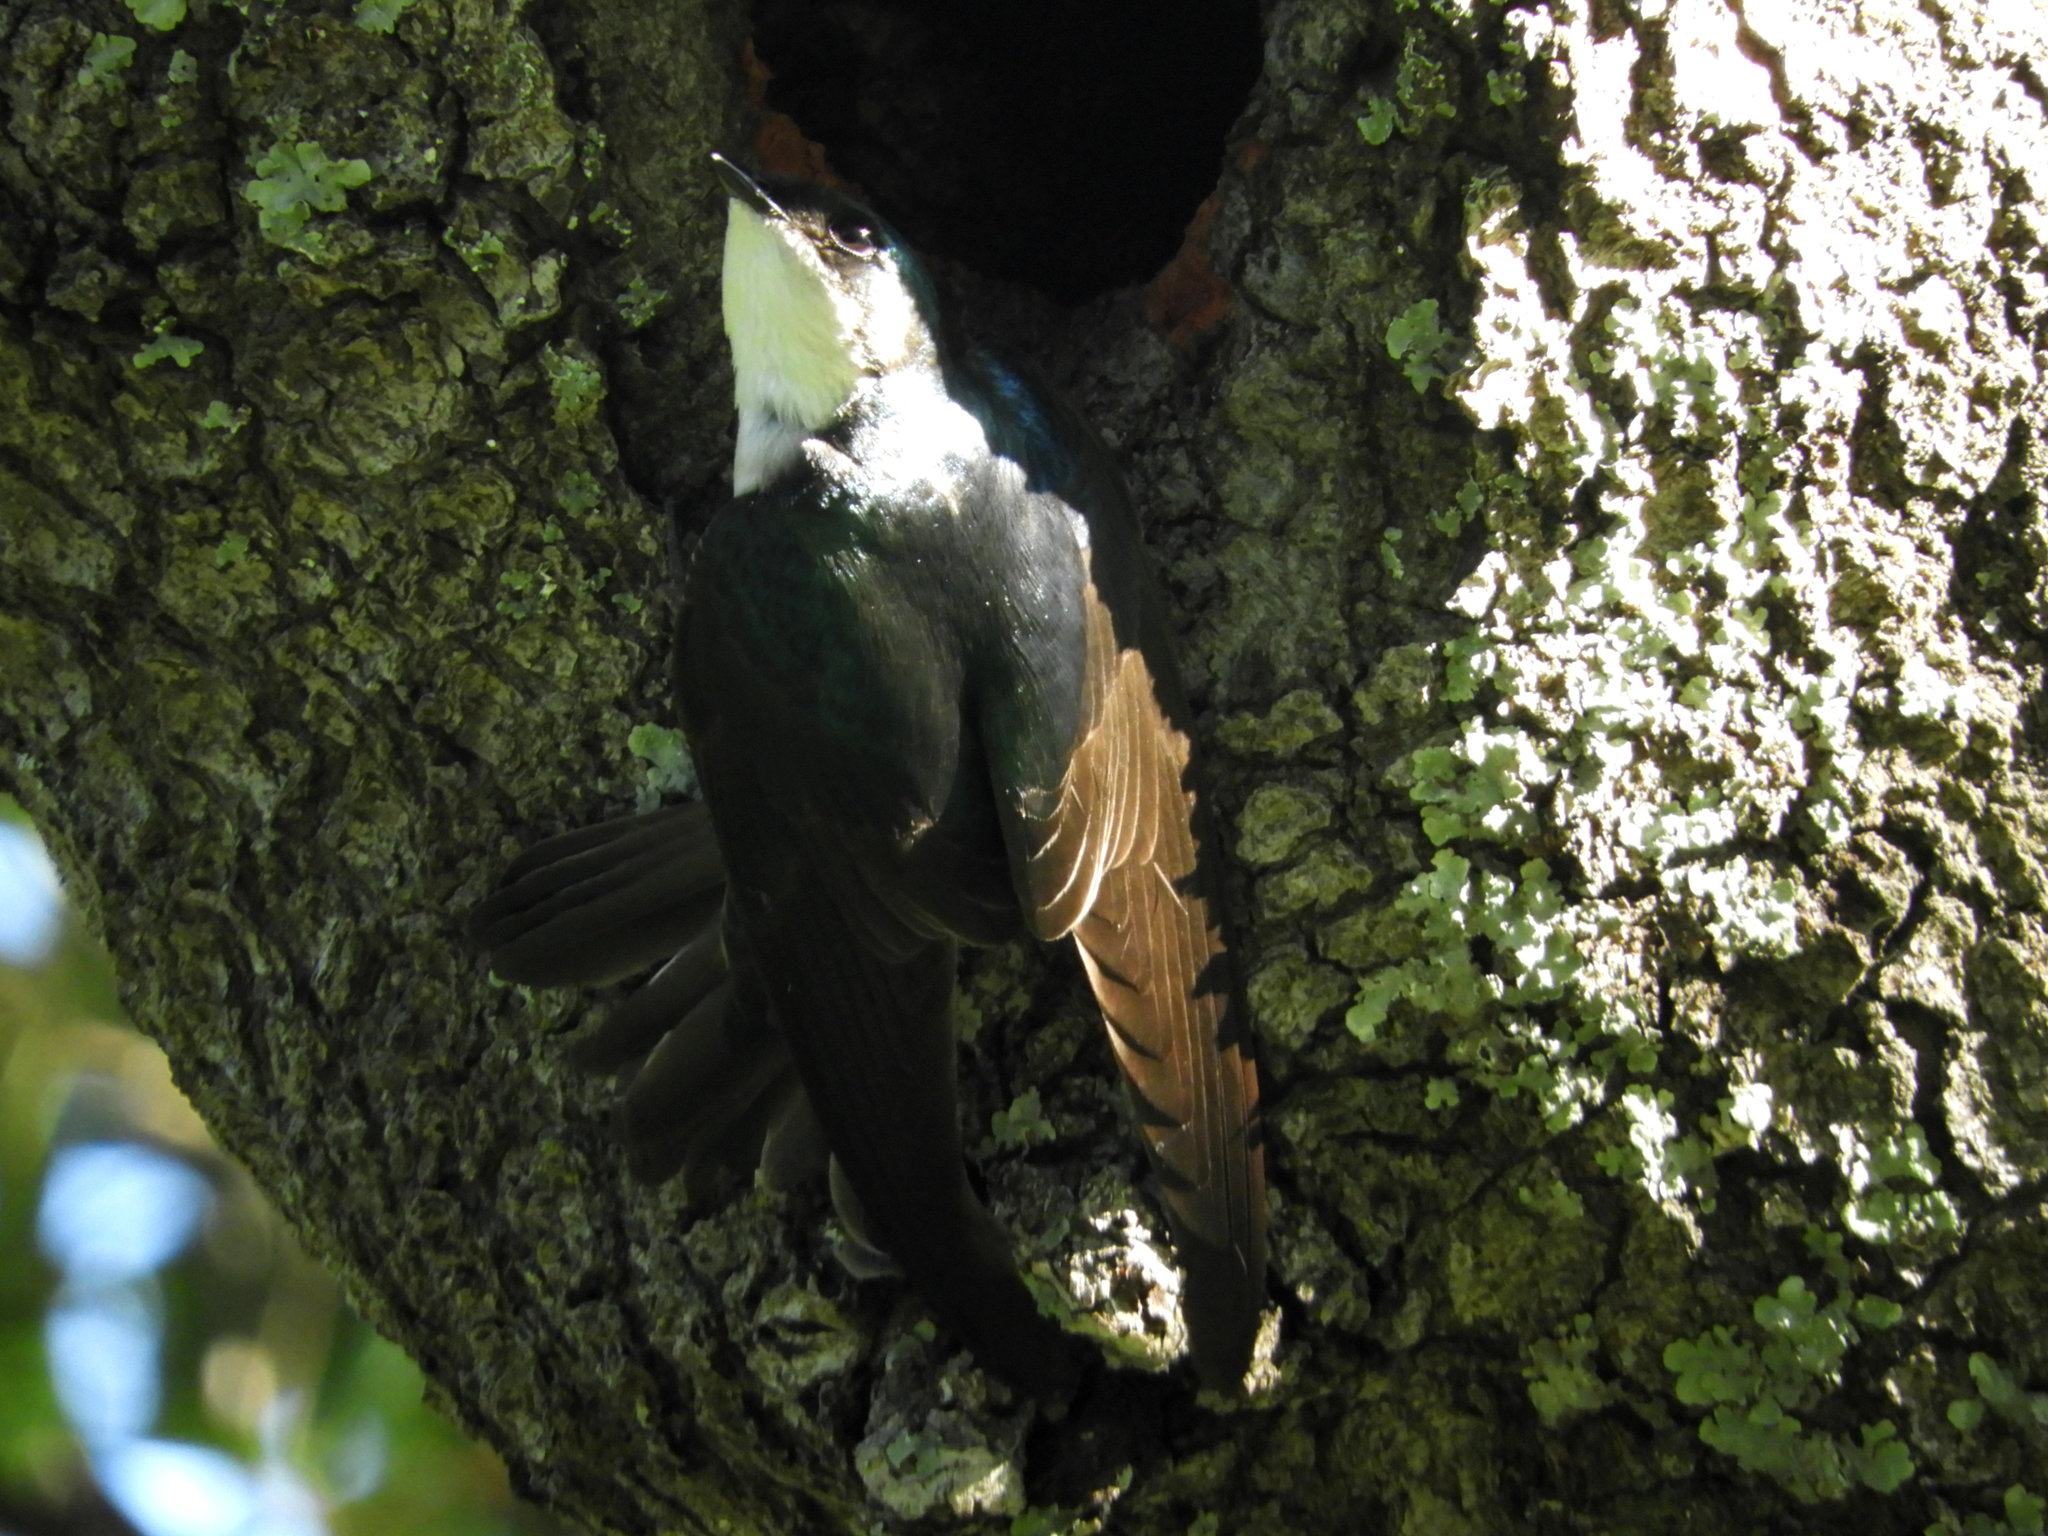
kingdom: Animalia
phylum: Chordata
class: Aves
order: Passeriformes
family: Hirundinidae
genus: Tachycineta
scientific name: Tachycineta bicolor
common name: Tree swallow
